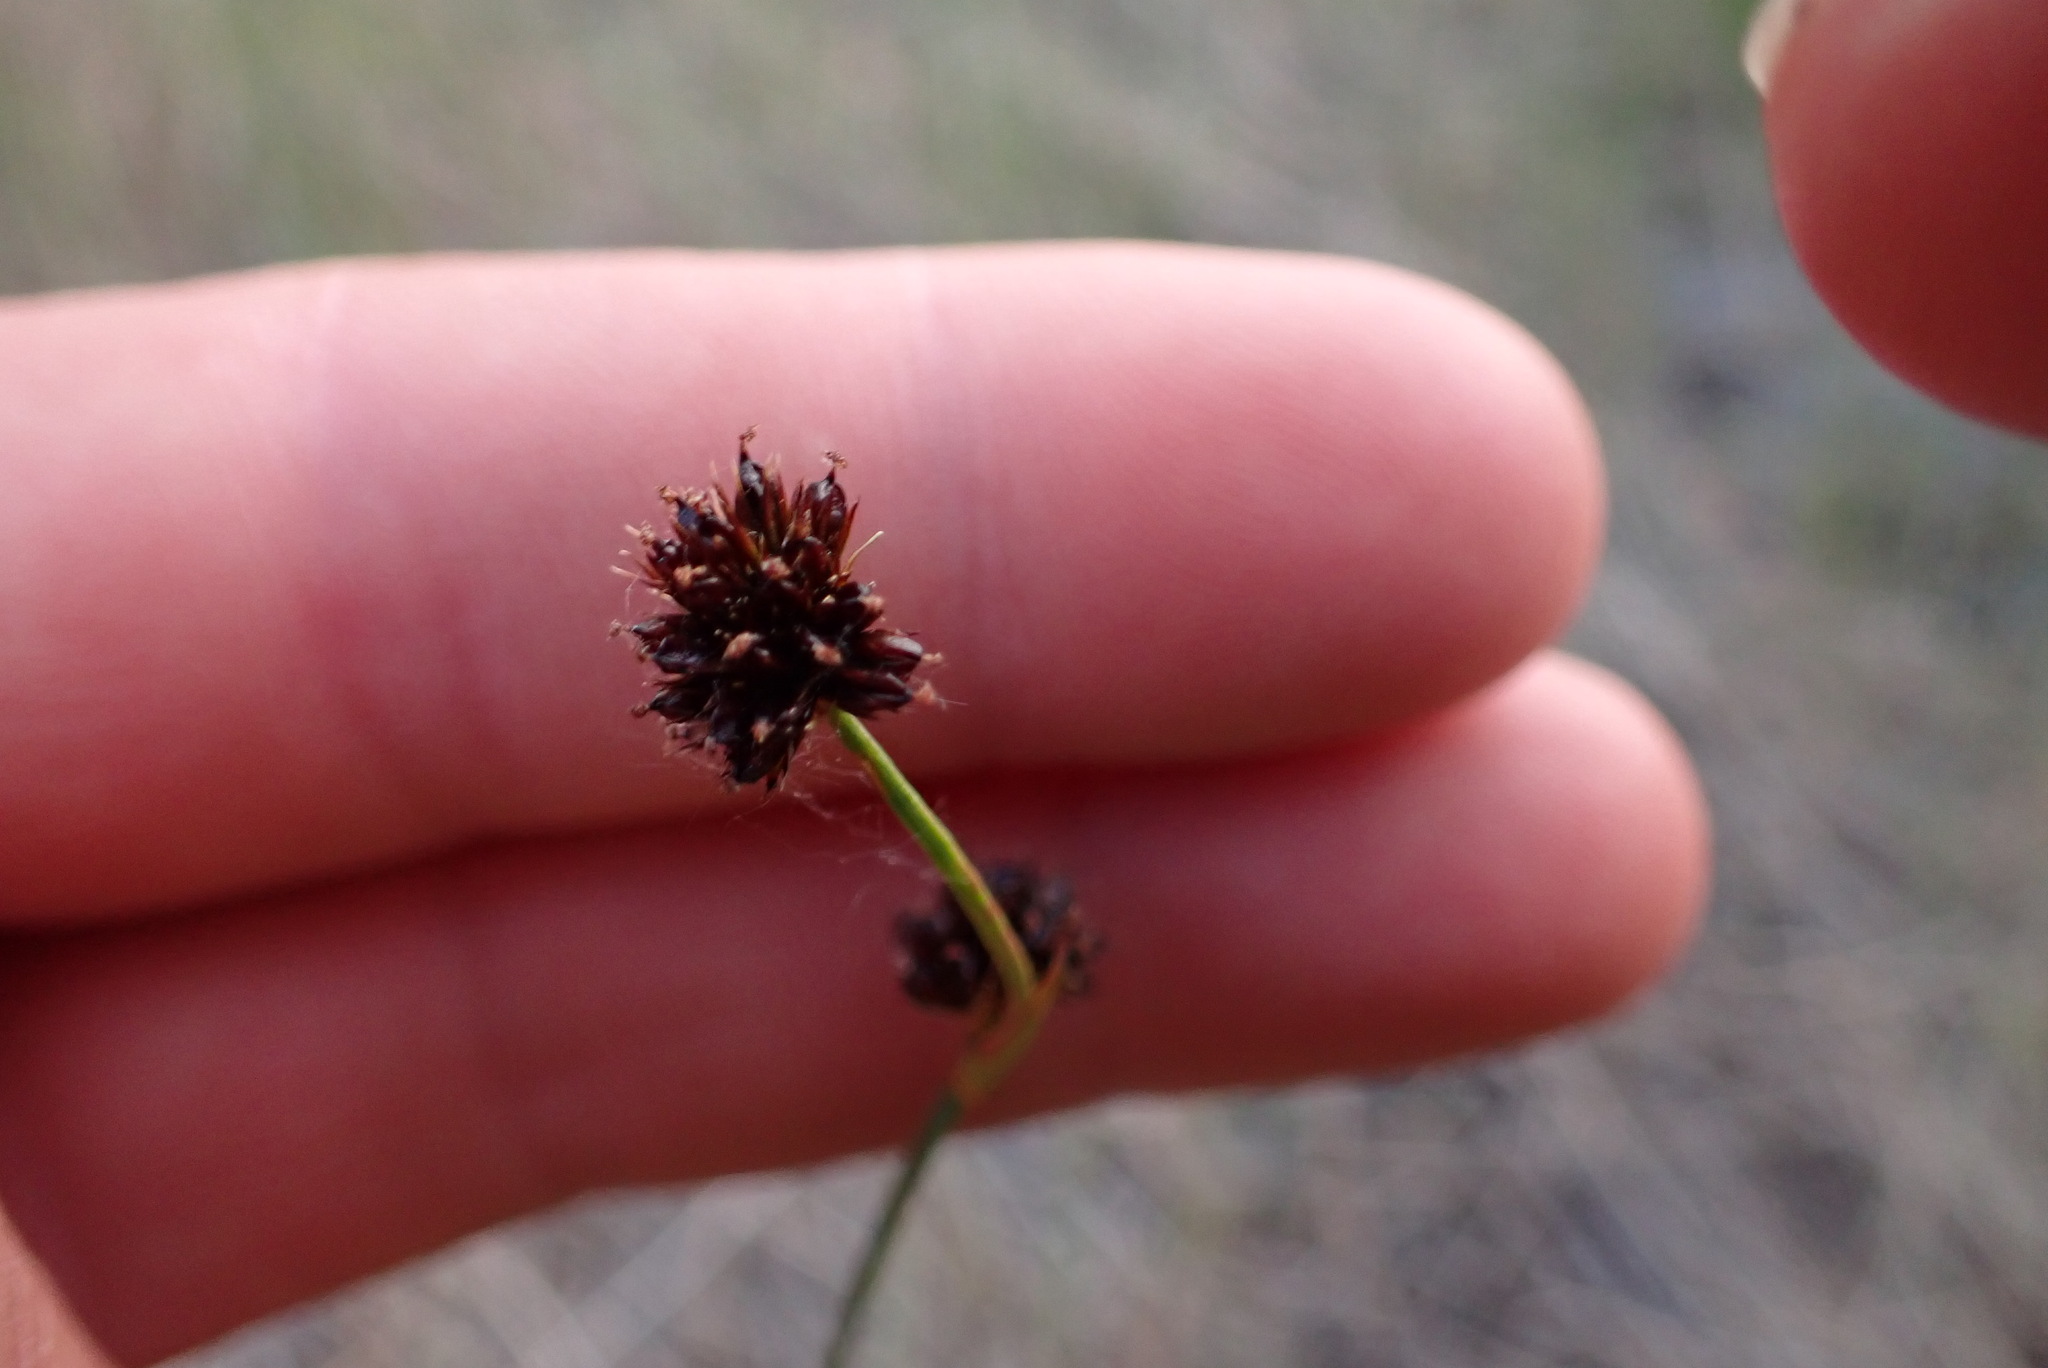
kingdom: Plantae
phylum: Tracheophyta
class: Liliopsida
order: Poales
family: Juncaceae
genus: Juncus
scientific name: Juncus ensifolius
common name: Sword-leaved rush
